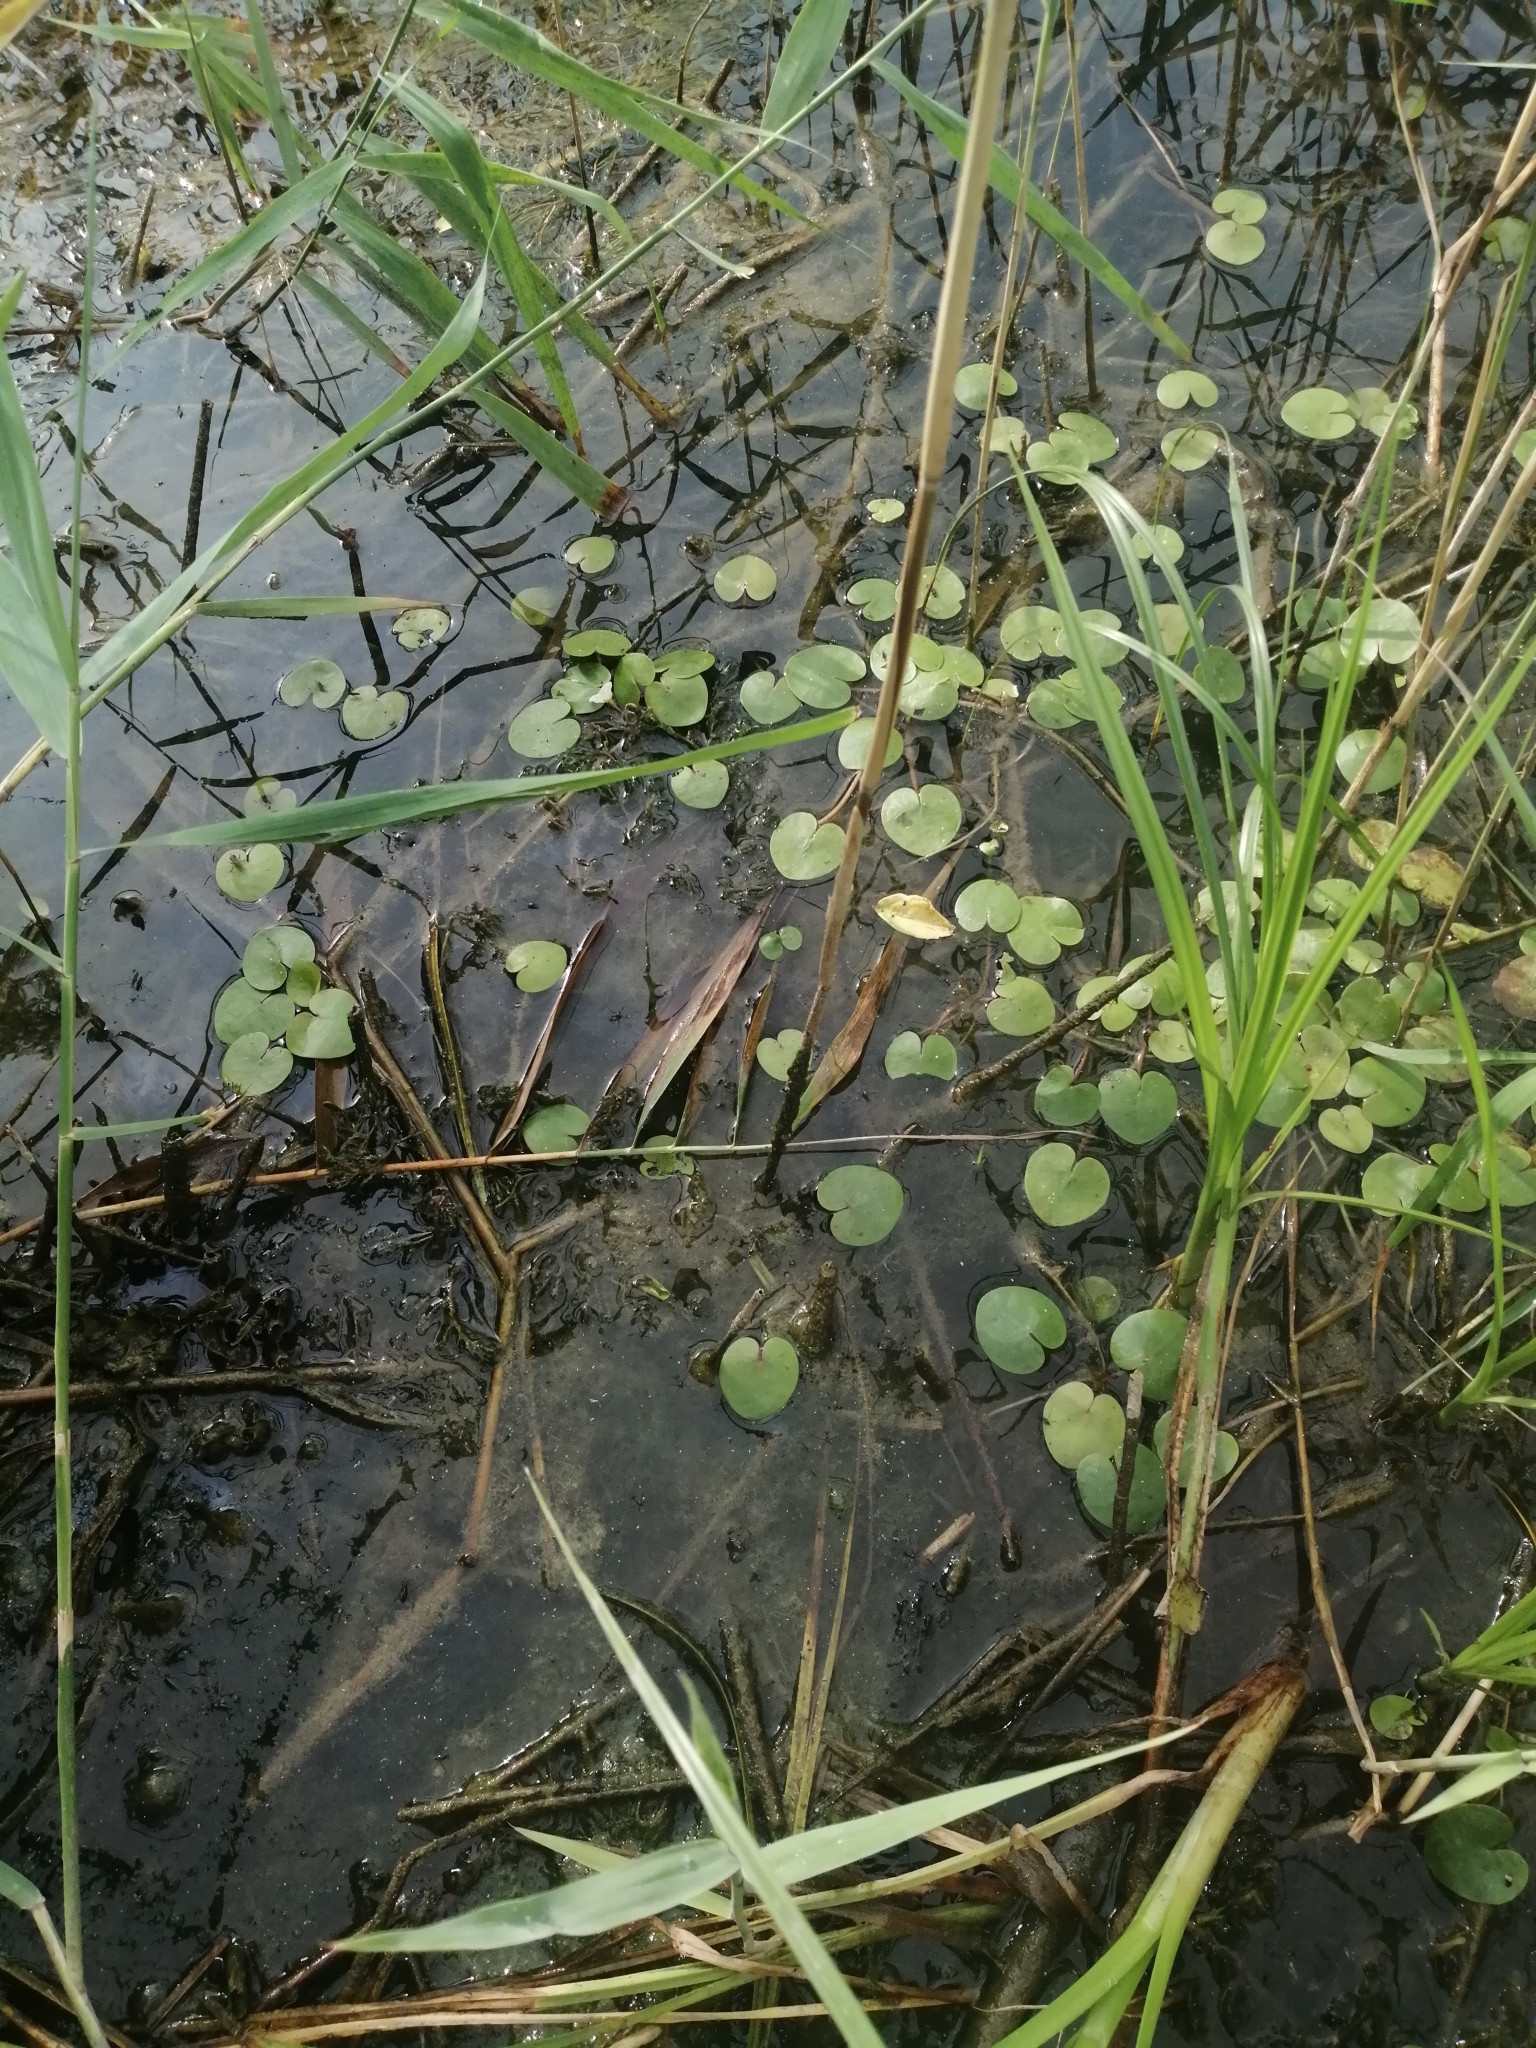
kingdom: Plantae
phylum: Tracheophyta
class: Liliopsida
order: Alismatales
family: Hydrocharitaceae
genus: Hydrocharis
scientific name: Hydrocharis morsus-ranae
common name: Frogbit
